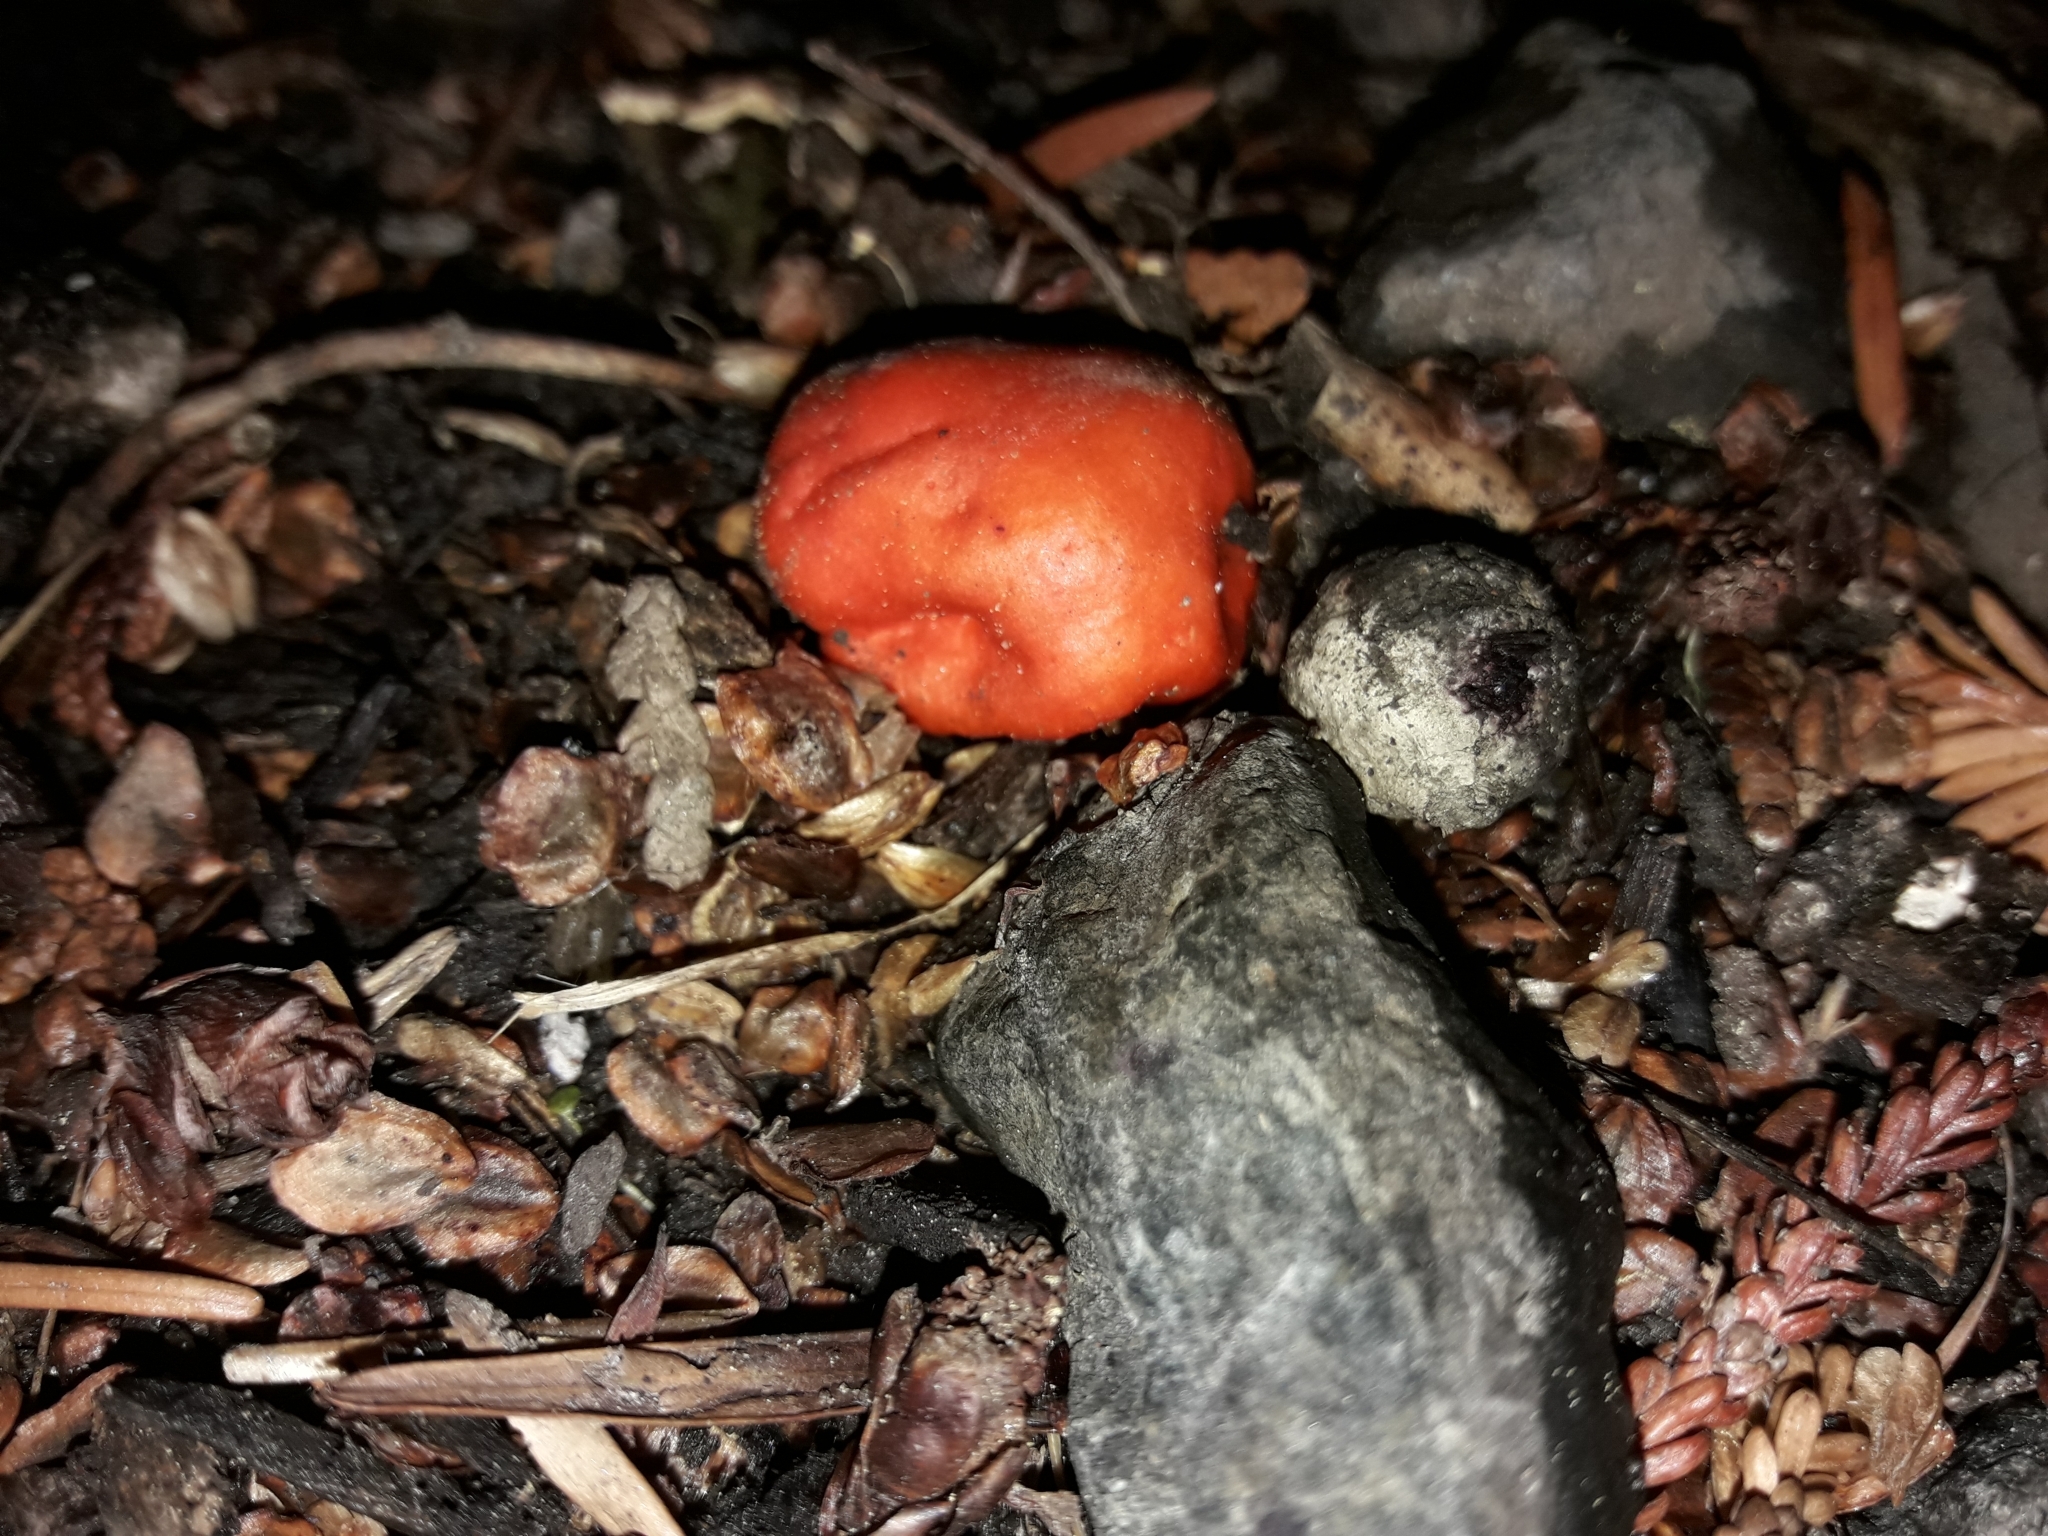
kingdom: Fungi
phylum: Basidiomycota
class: Agaricomycetes
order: Agaricales
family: Strophariaceae
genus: Leratiomyces
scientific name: Leratiomyces erythrocephalus
